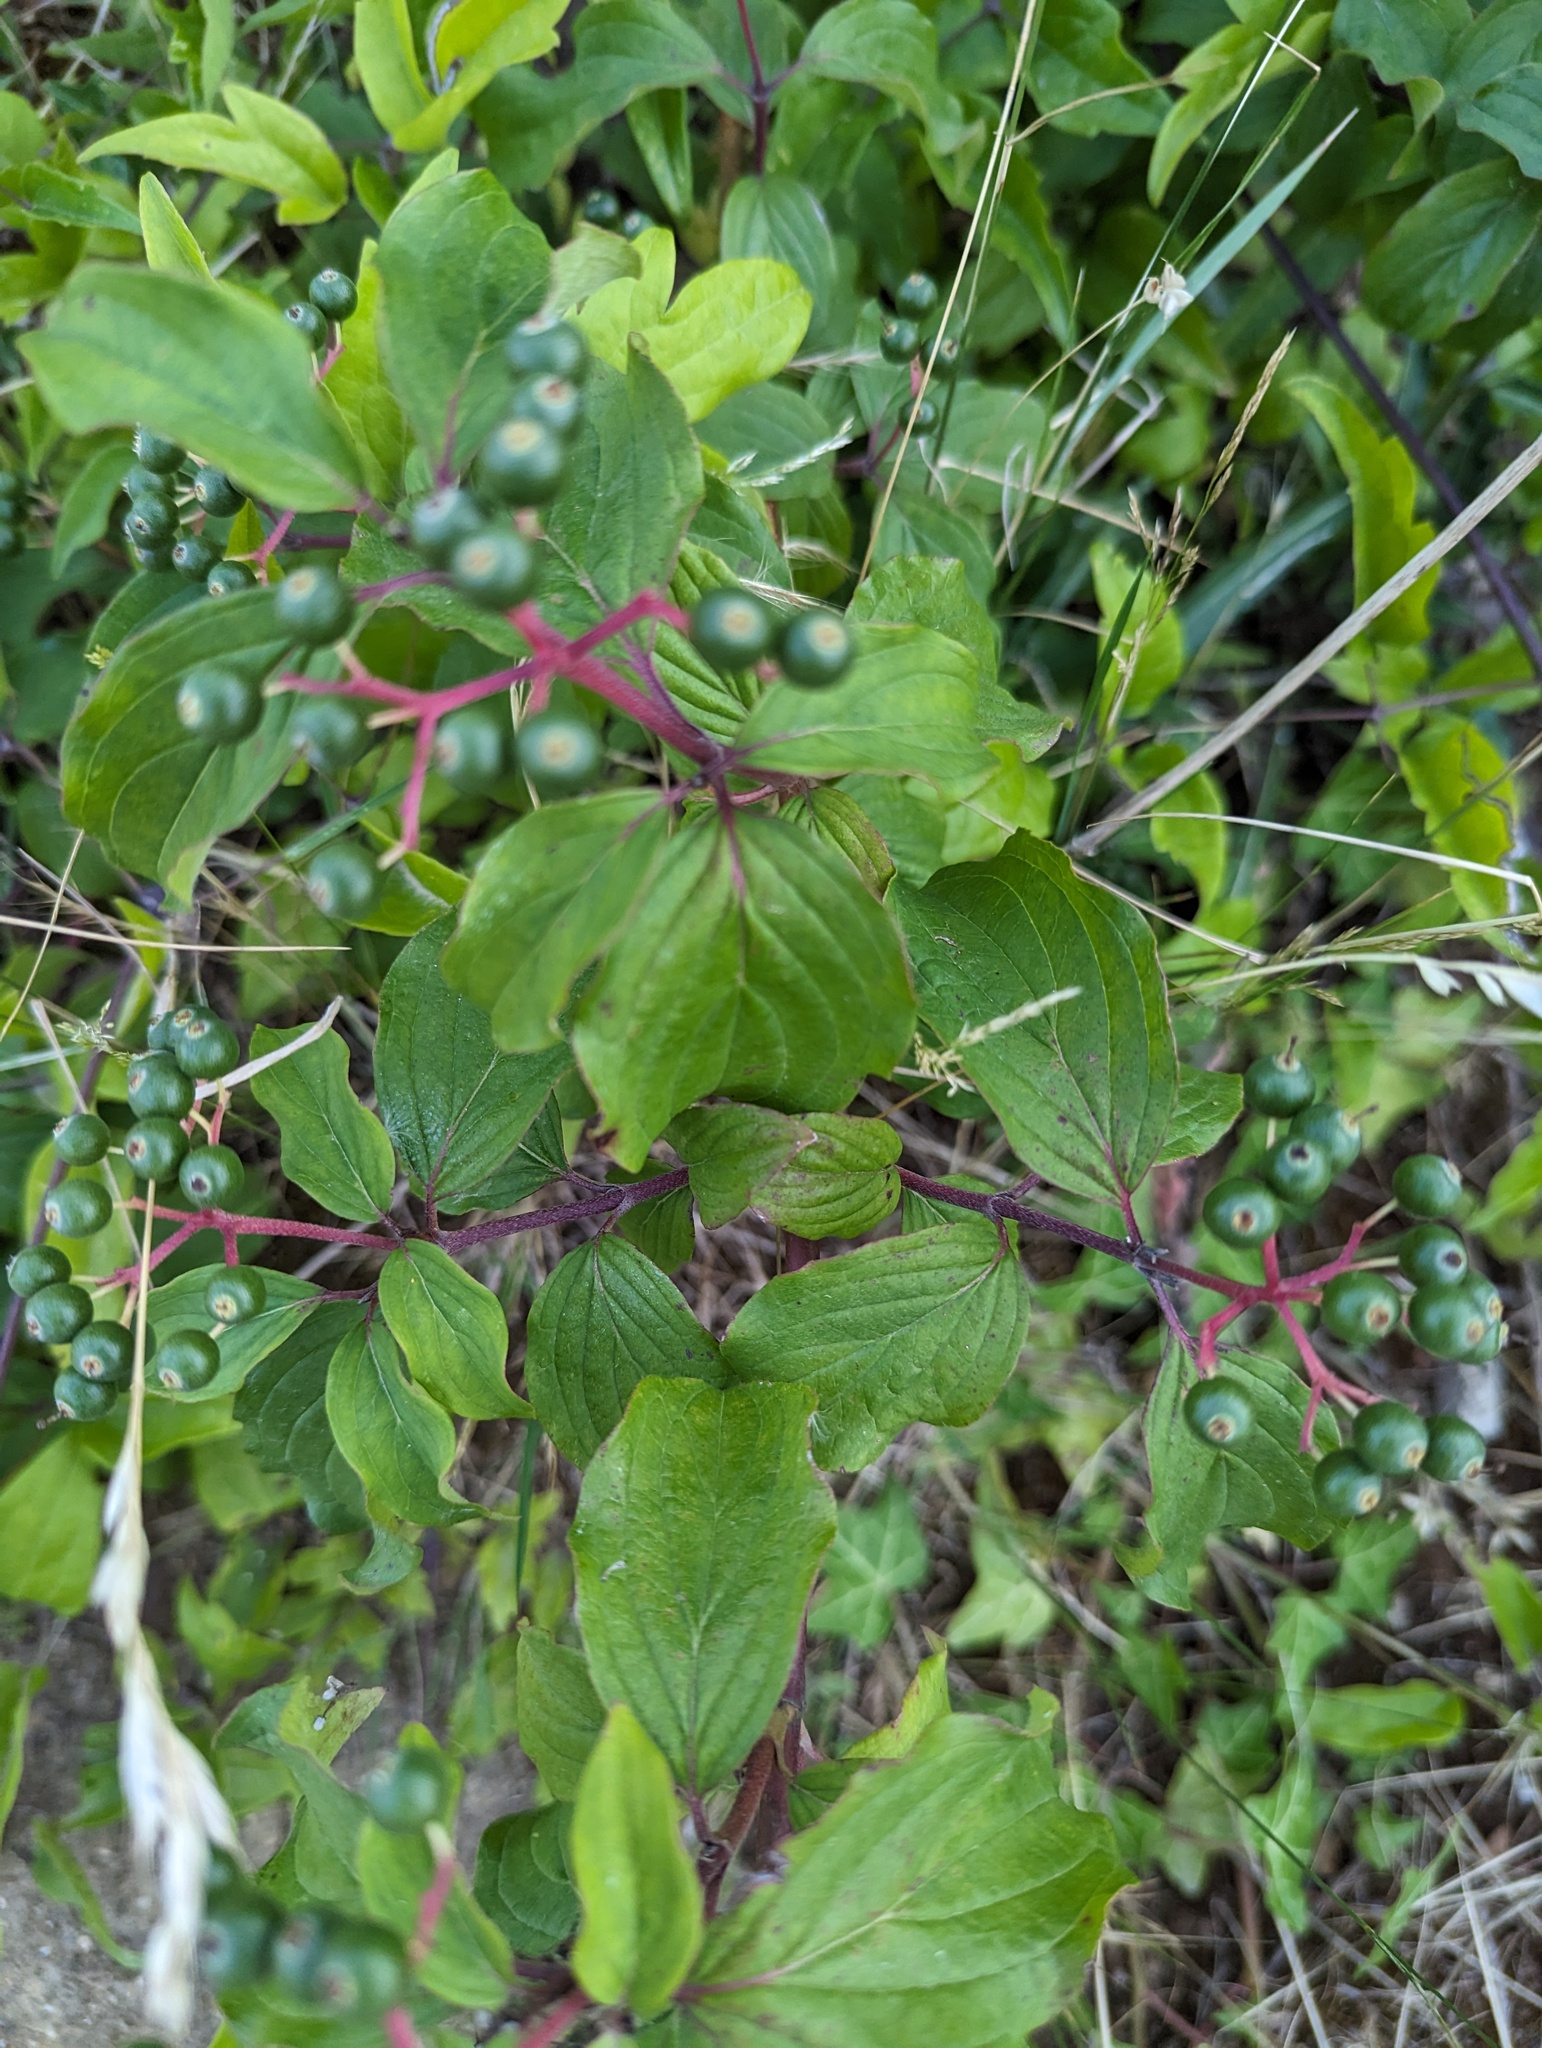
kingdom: Plantae
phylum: Tracheophyta
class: Magnoliopsida
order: Cornales
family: Cornaceae
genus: Cornus
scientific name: Cornus sanguinea
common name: Dogwood
